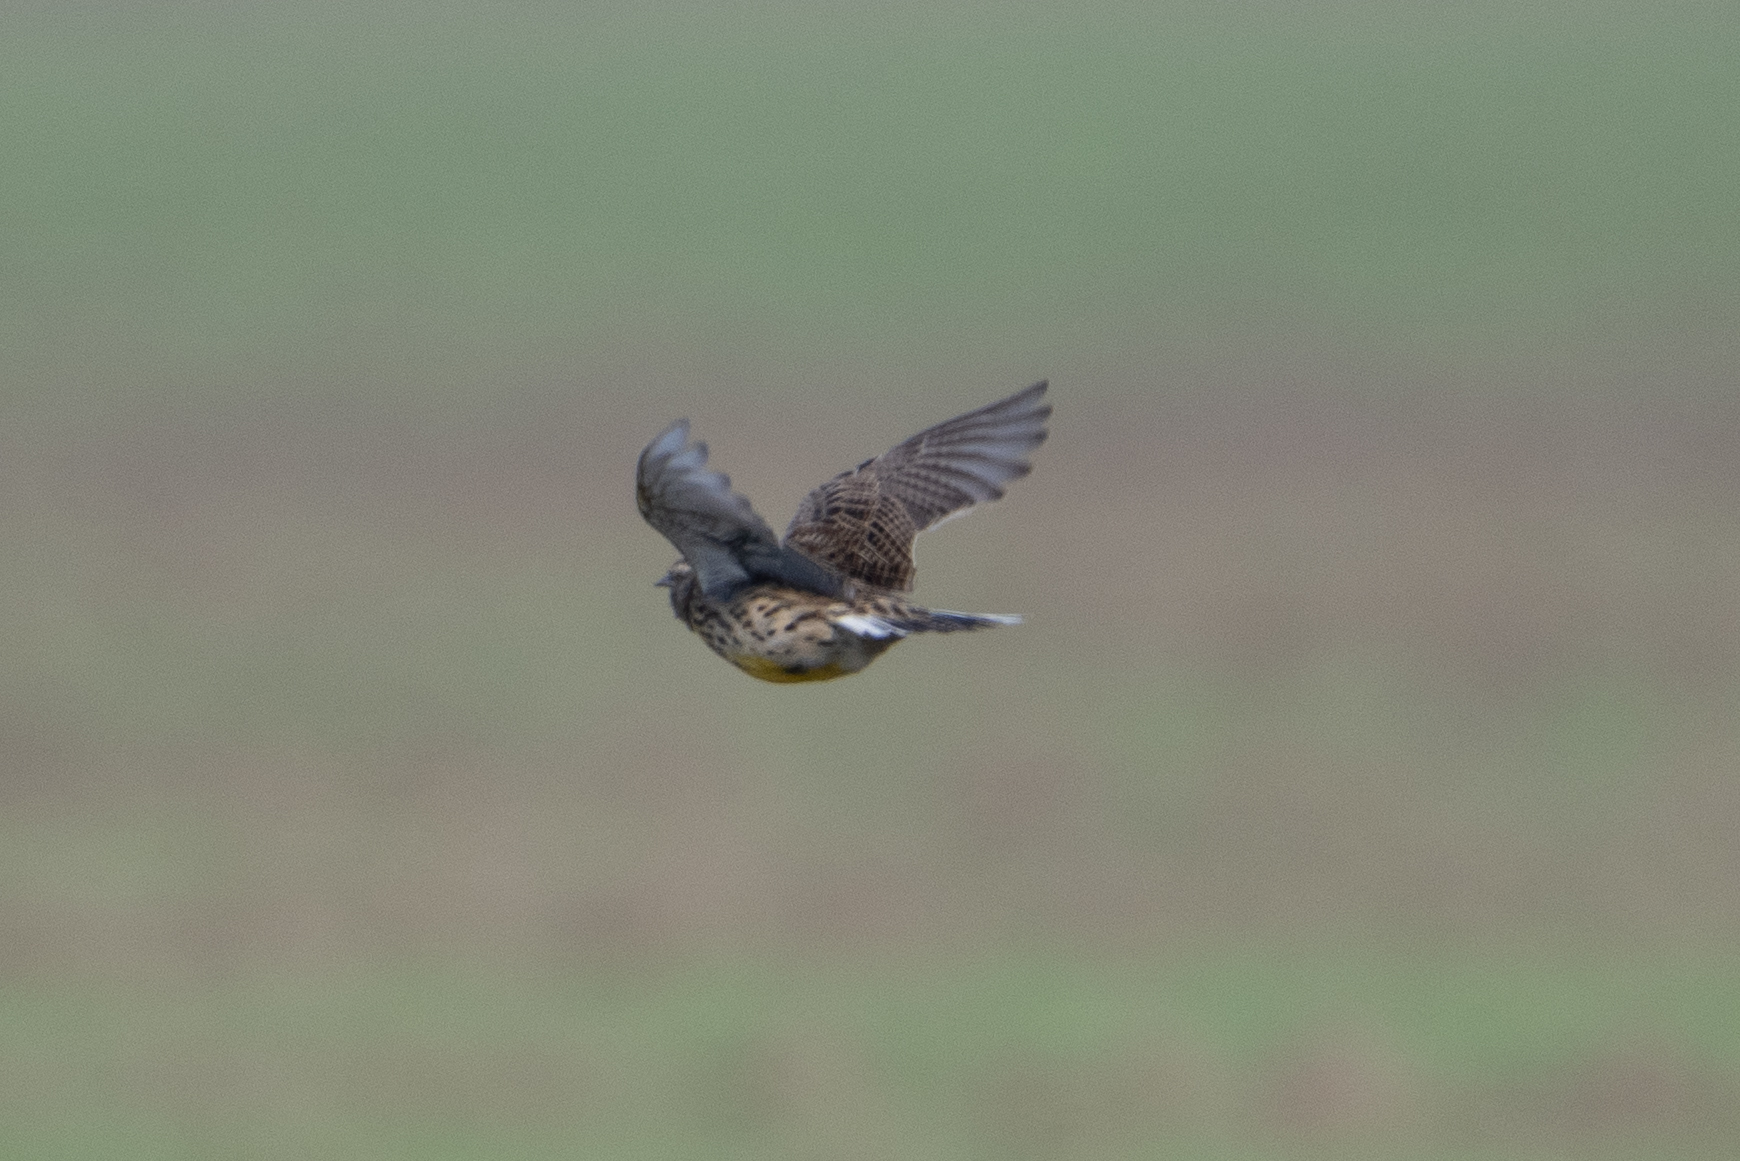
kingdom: Animalia
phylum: Chordata
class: Aves
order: Passeriformes
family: Icteridae
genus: Sturnella
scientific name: Sturnella neglecta
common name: Western meadowlark
